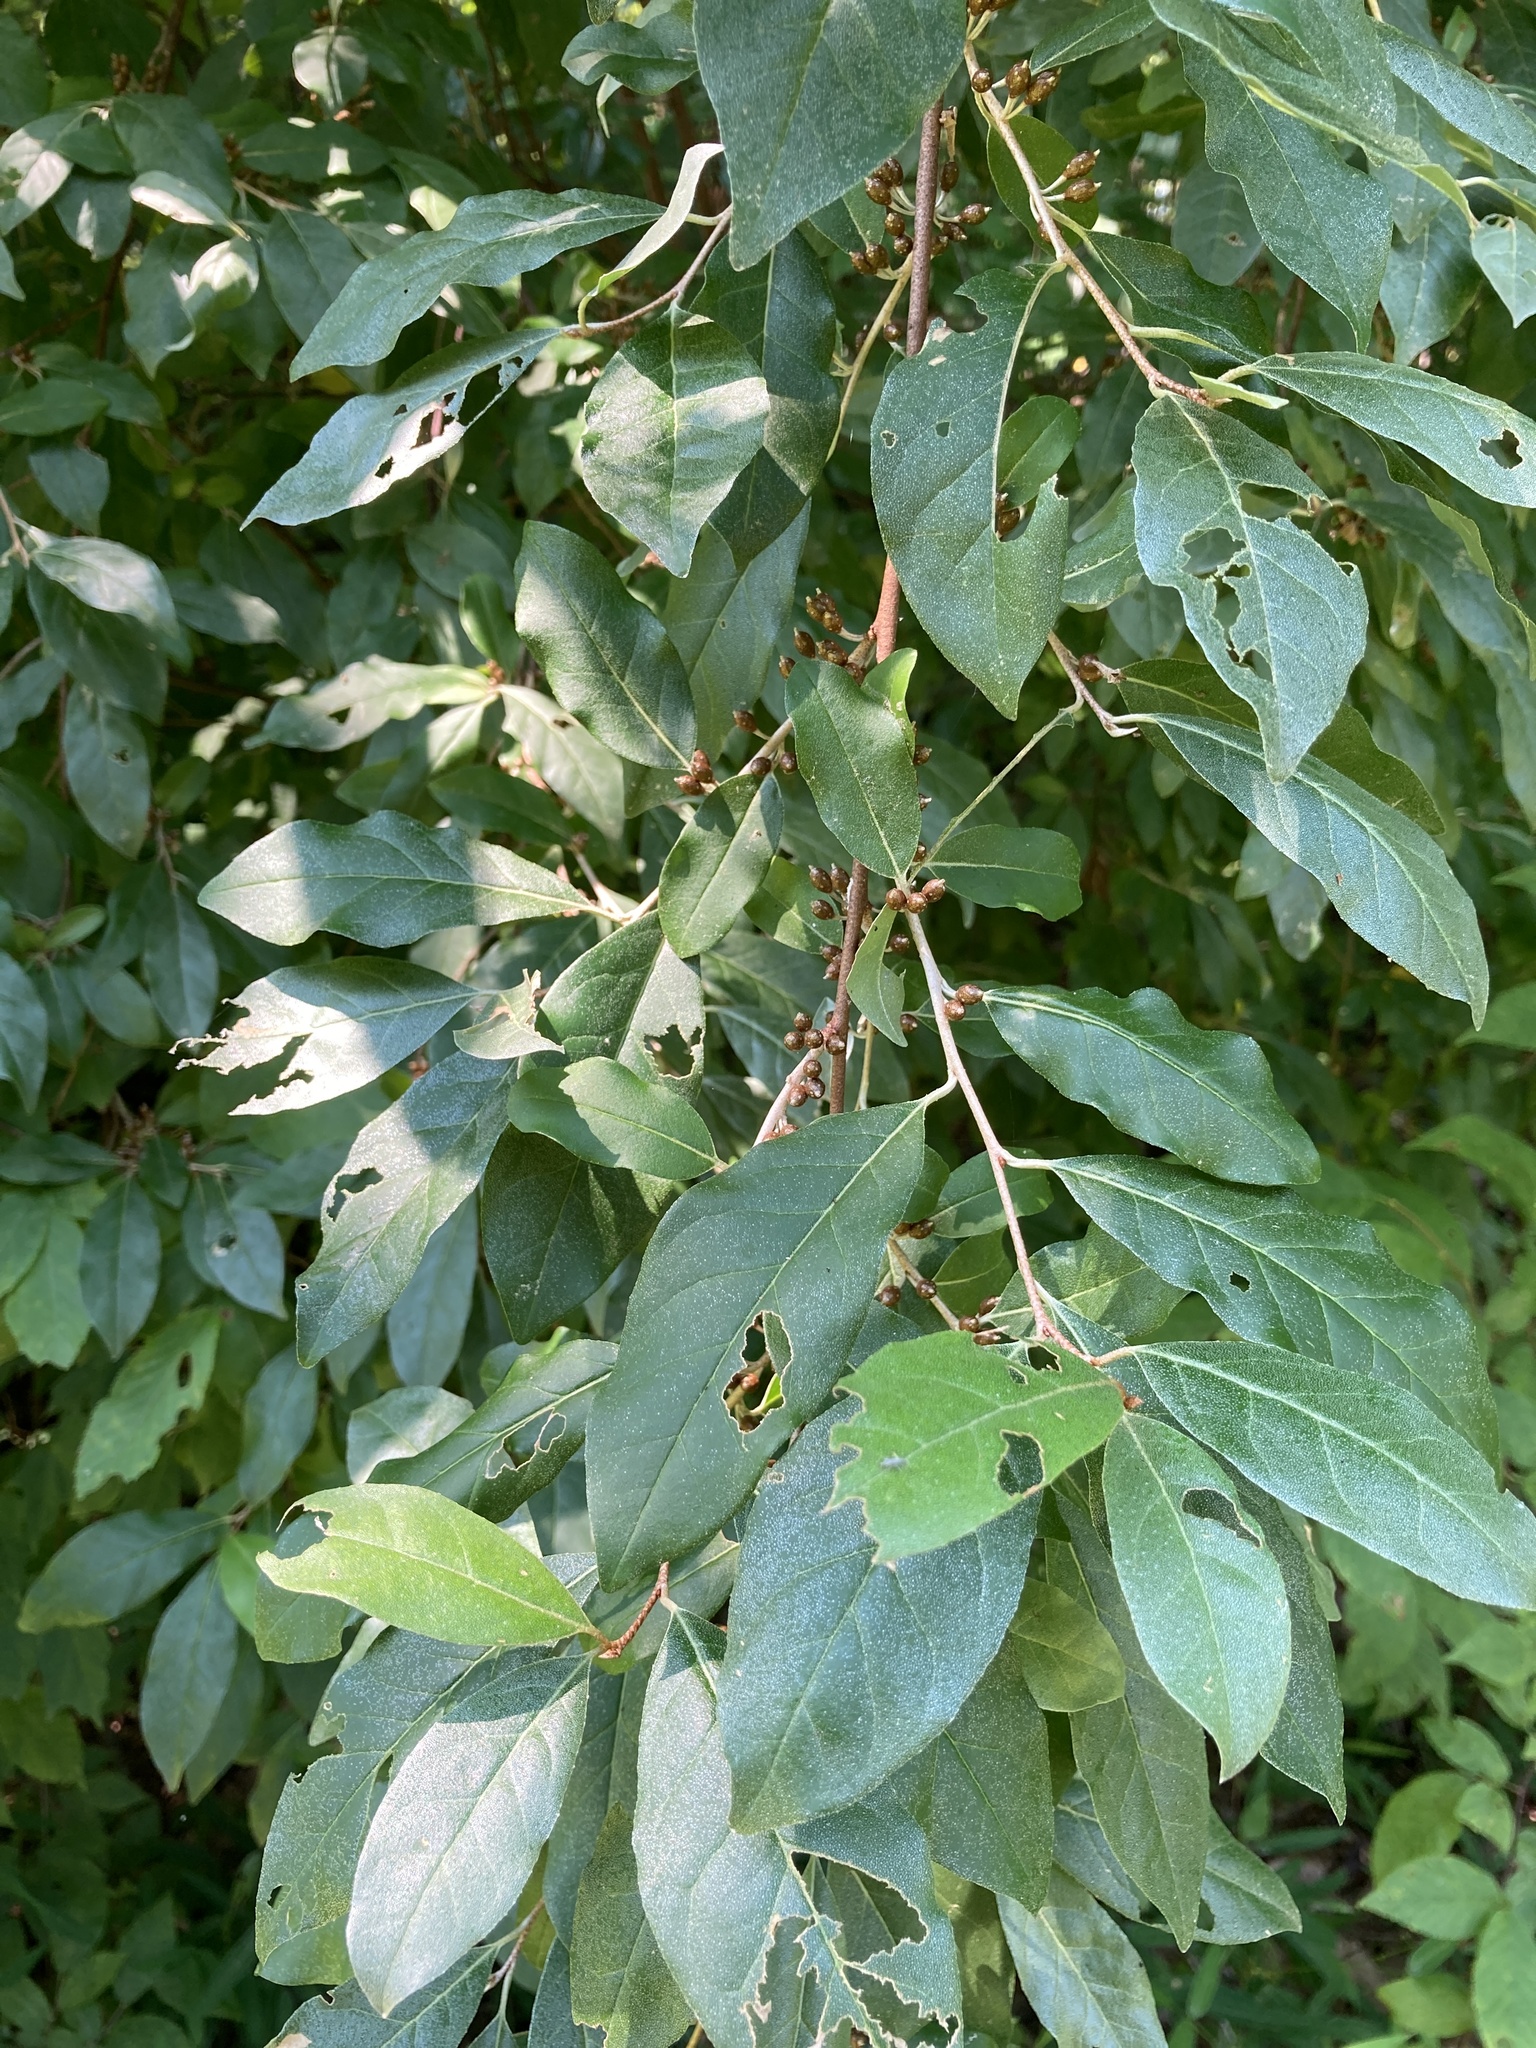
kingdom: Plantae
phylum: Tracheophyta
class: Magnoliopsida
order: Rosales
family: Elaeagnaceae
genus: Elaeagnus
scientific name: Elaeagnus umbellata
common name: Autumn olive
